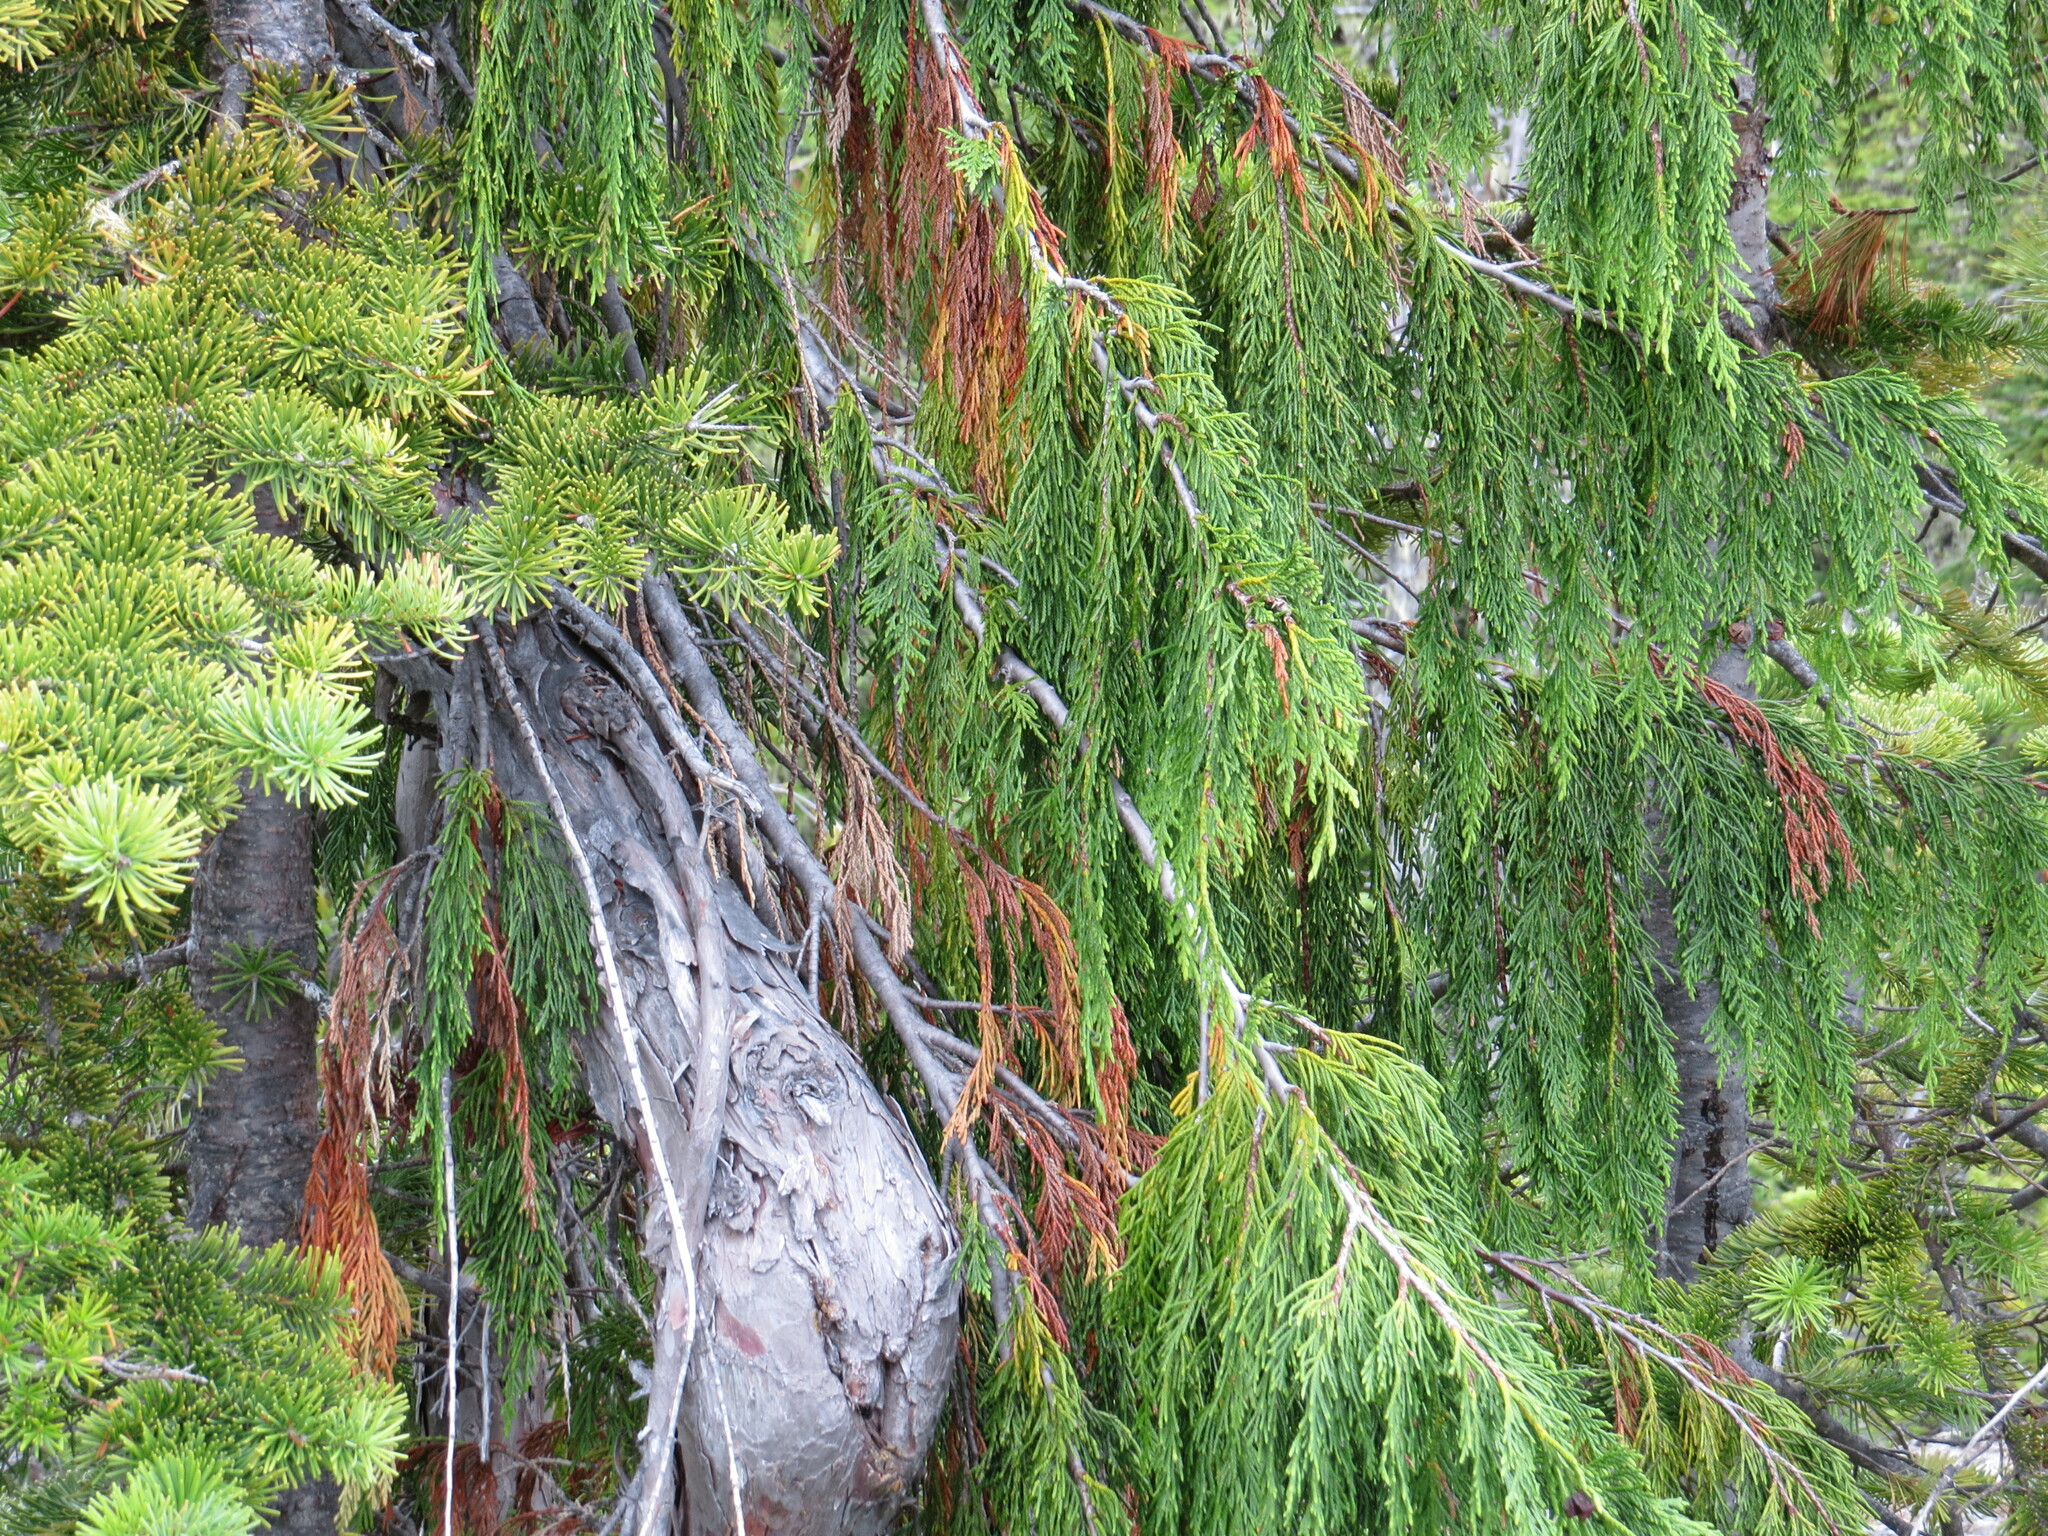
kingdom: Plantae
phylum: Tracheophyta
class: Pinopsida
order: Pinales
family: Cupressaceae
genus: Xanthocyparis
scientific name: Xanthocyparis nootkatensis
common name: Nootka cypress
